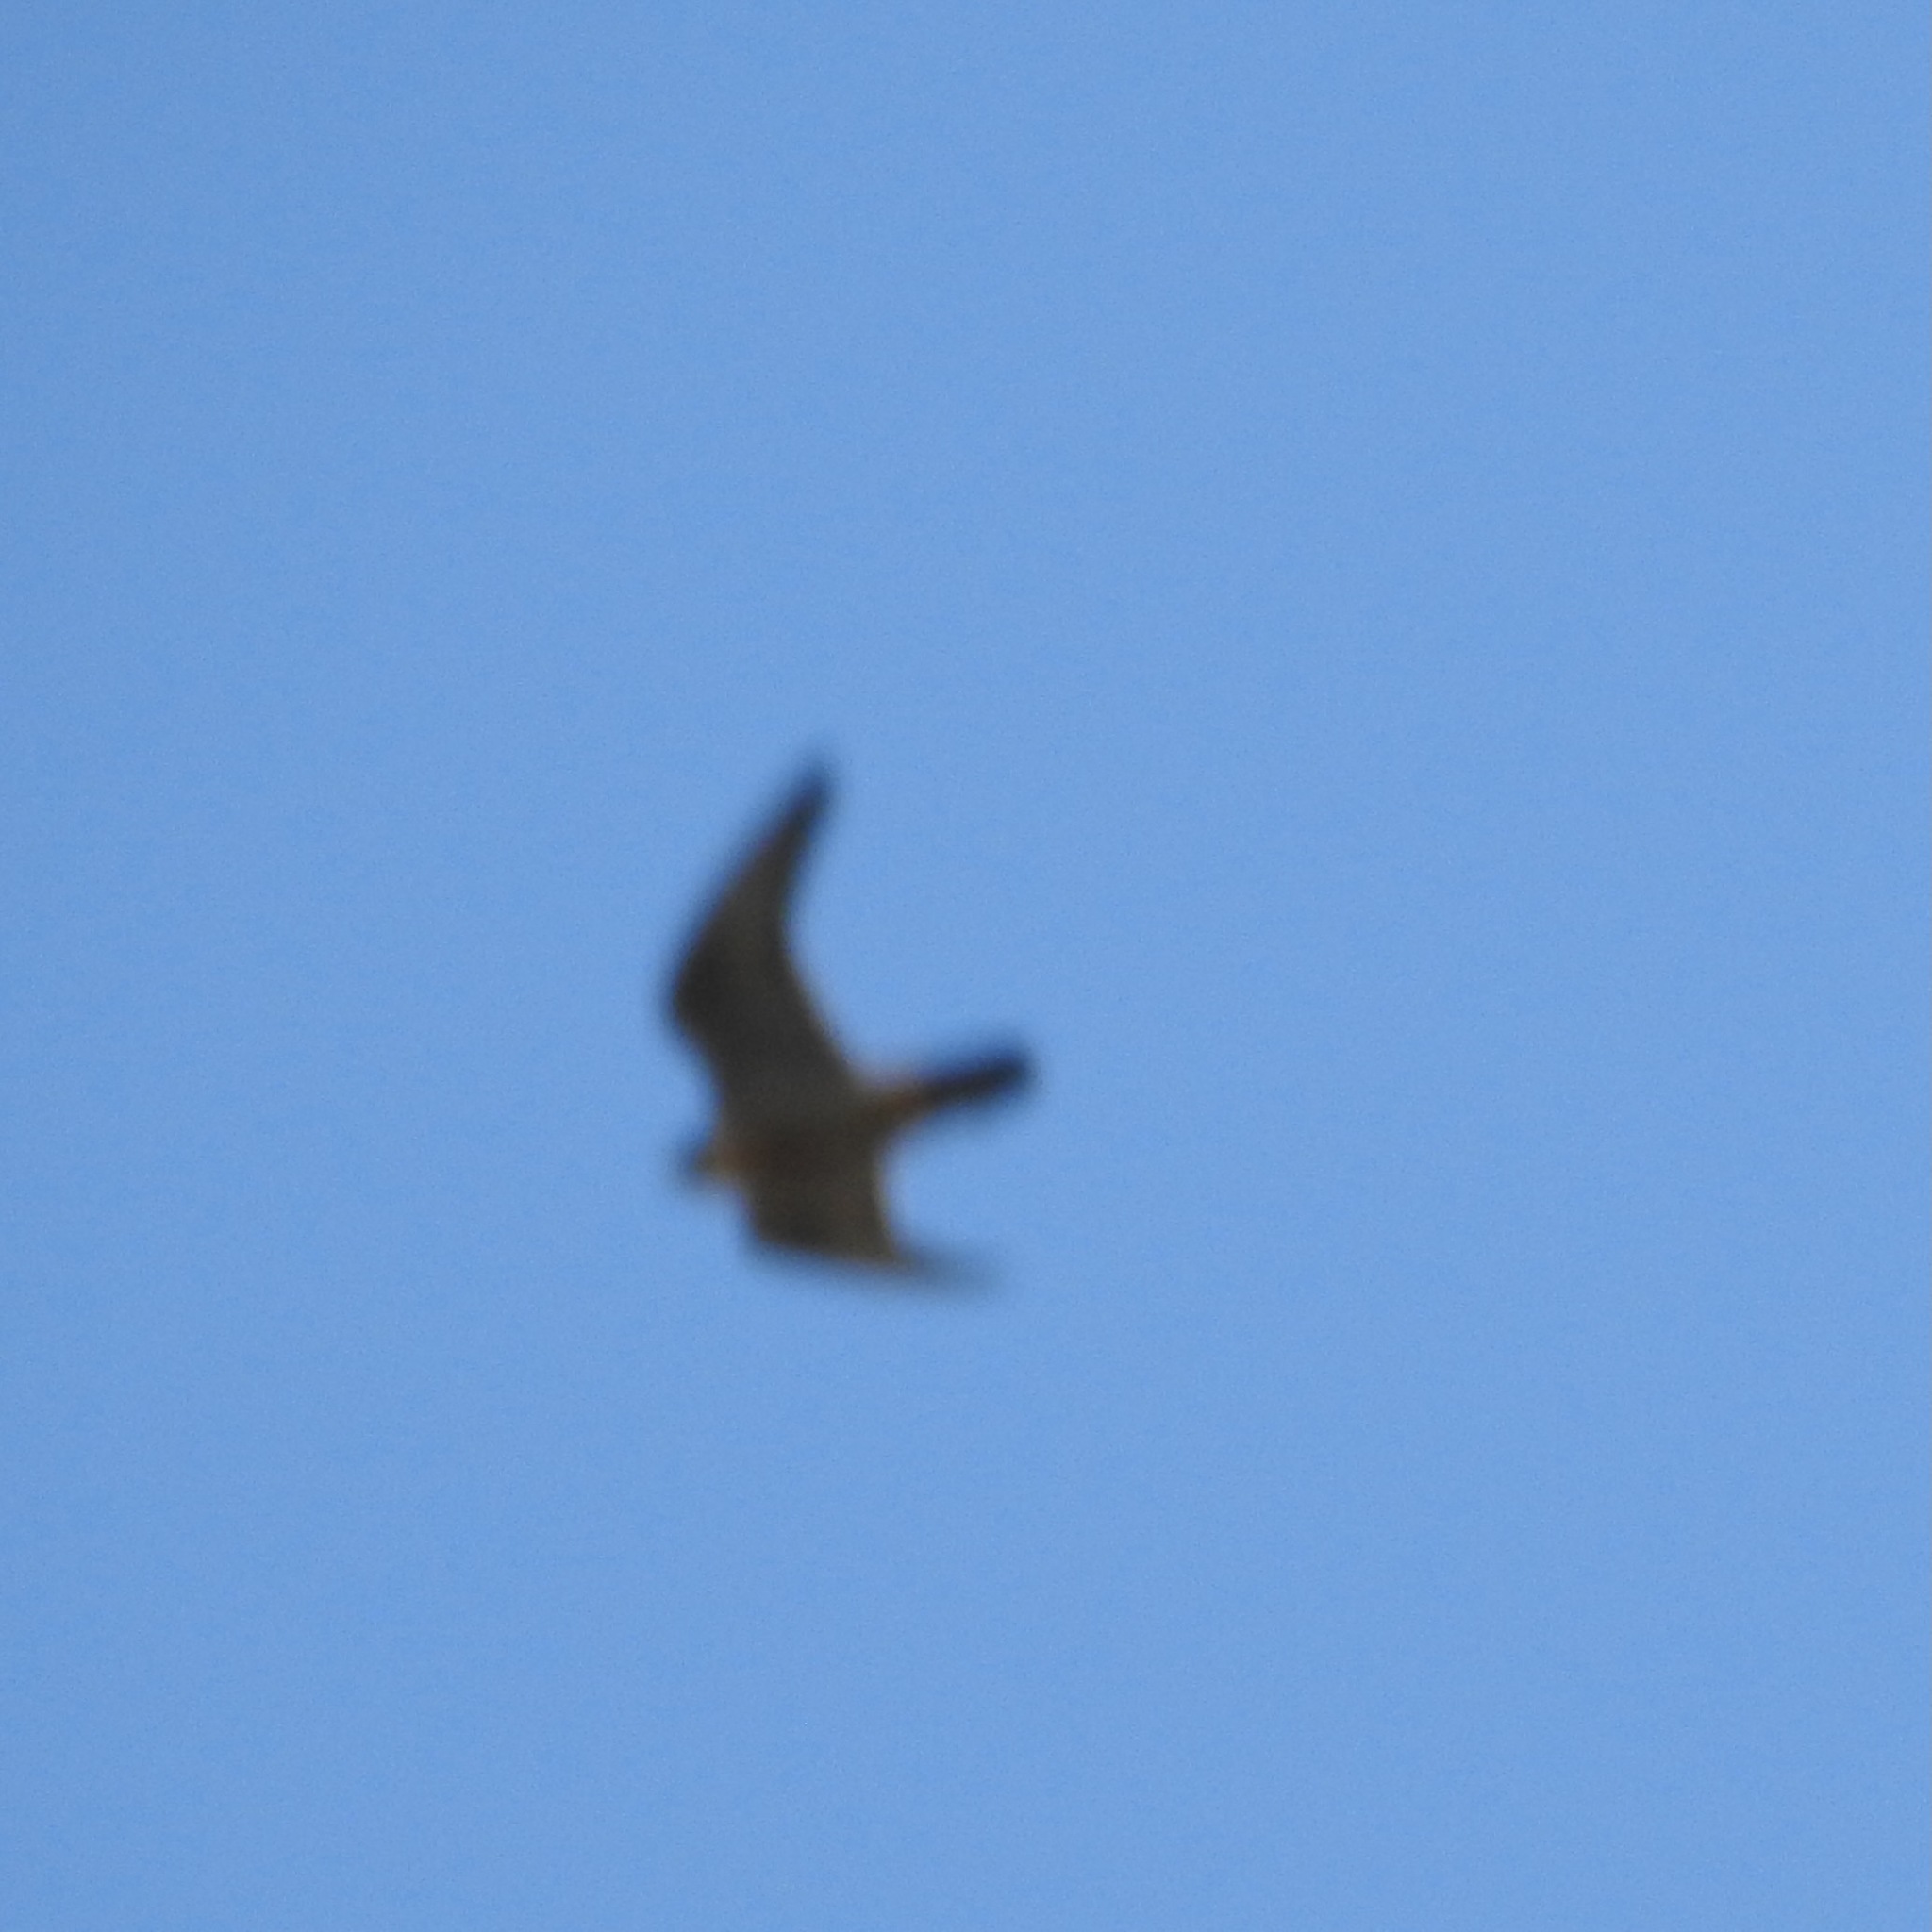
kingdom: Animalia
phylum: Chordata
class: Aves
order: Falconiformes
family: Falconidae
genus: Falco
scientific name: Falco peregrinus
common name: Peregrine falcon
